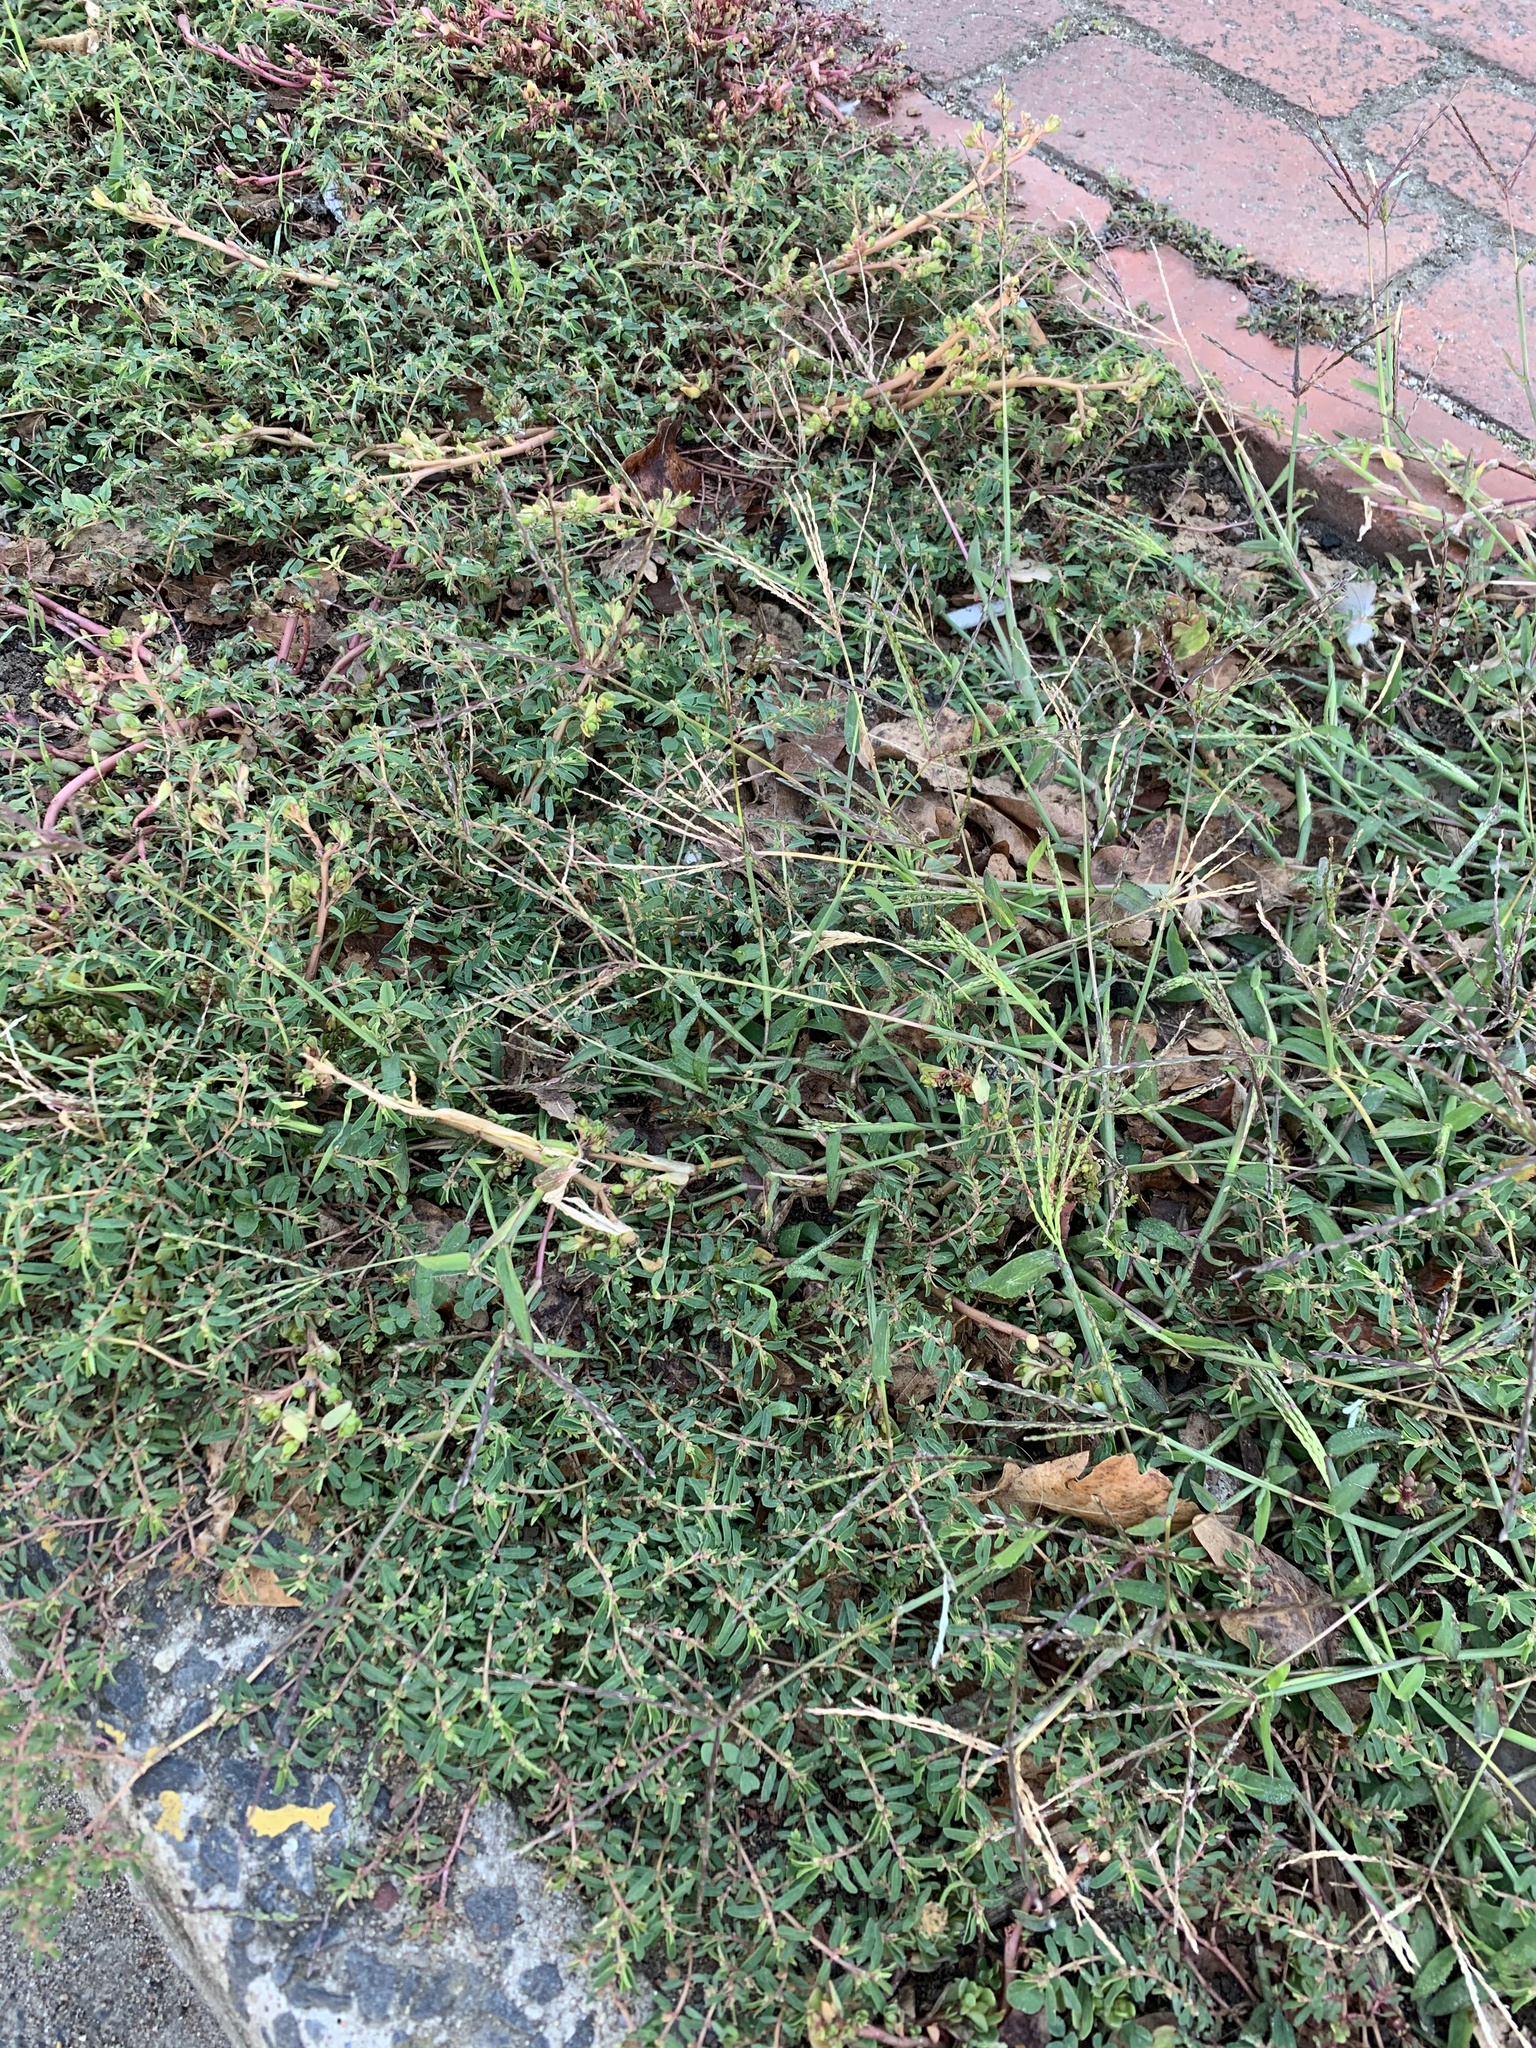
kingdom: Plantae
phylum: Tracheophyta
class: Liliopsida
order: Poales
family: Poaceae
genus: Digitaria
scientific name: Digitaria sanguinalis
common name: Hairy crabgrass
